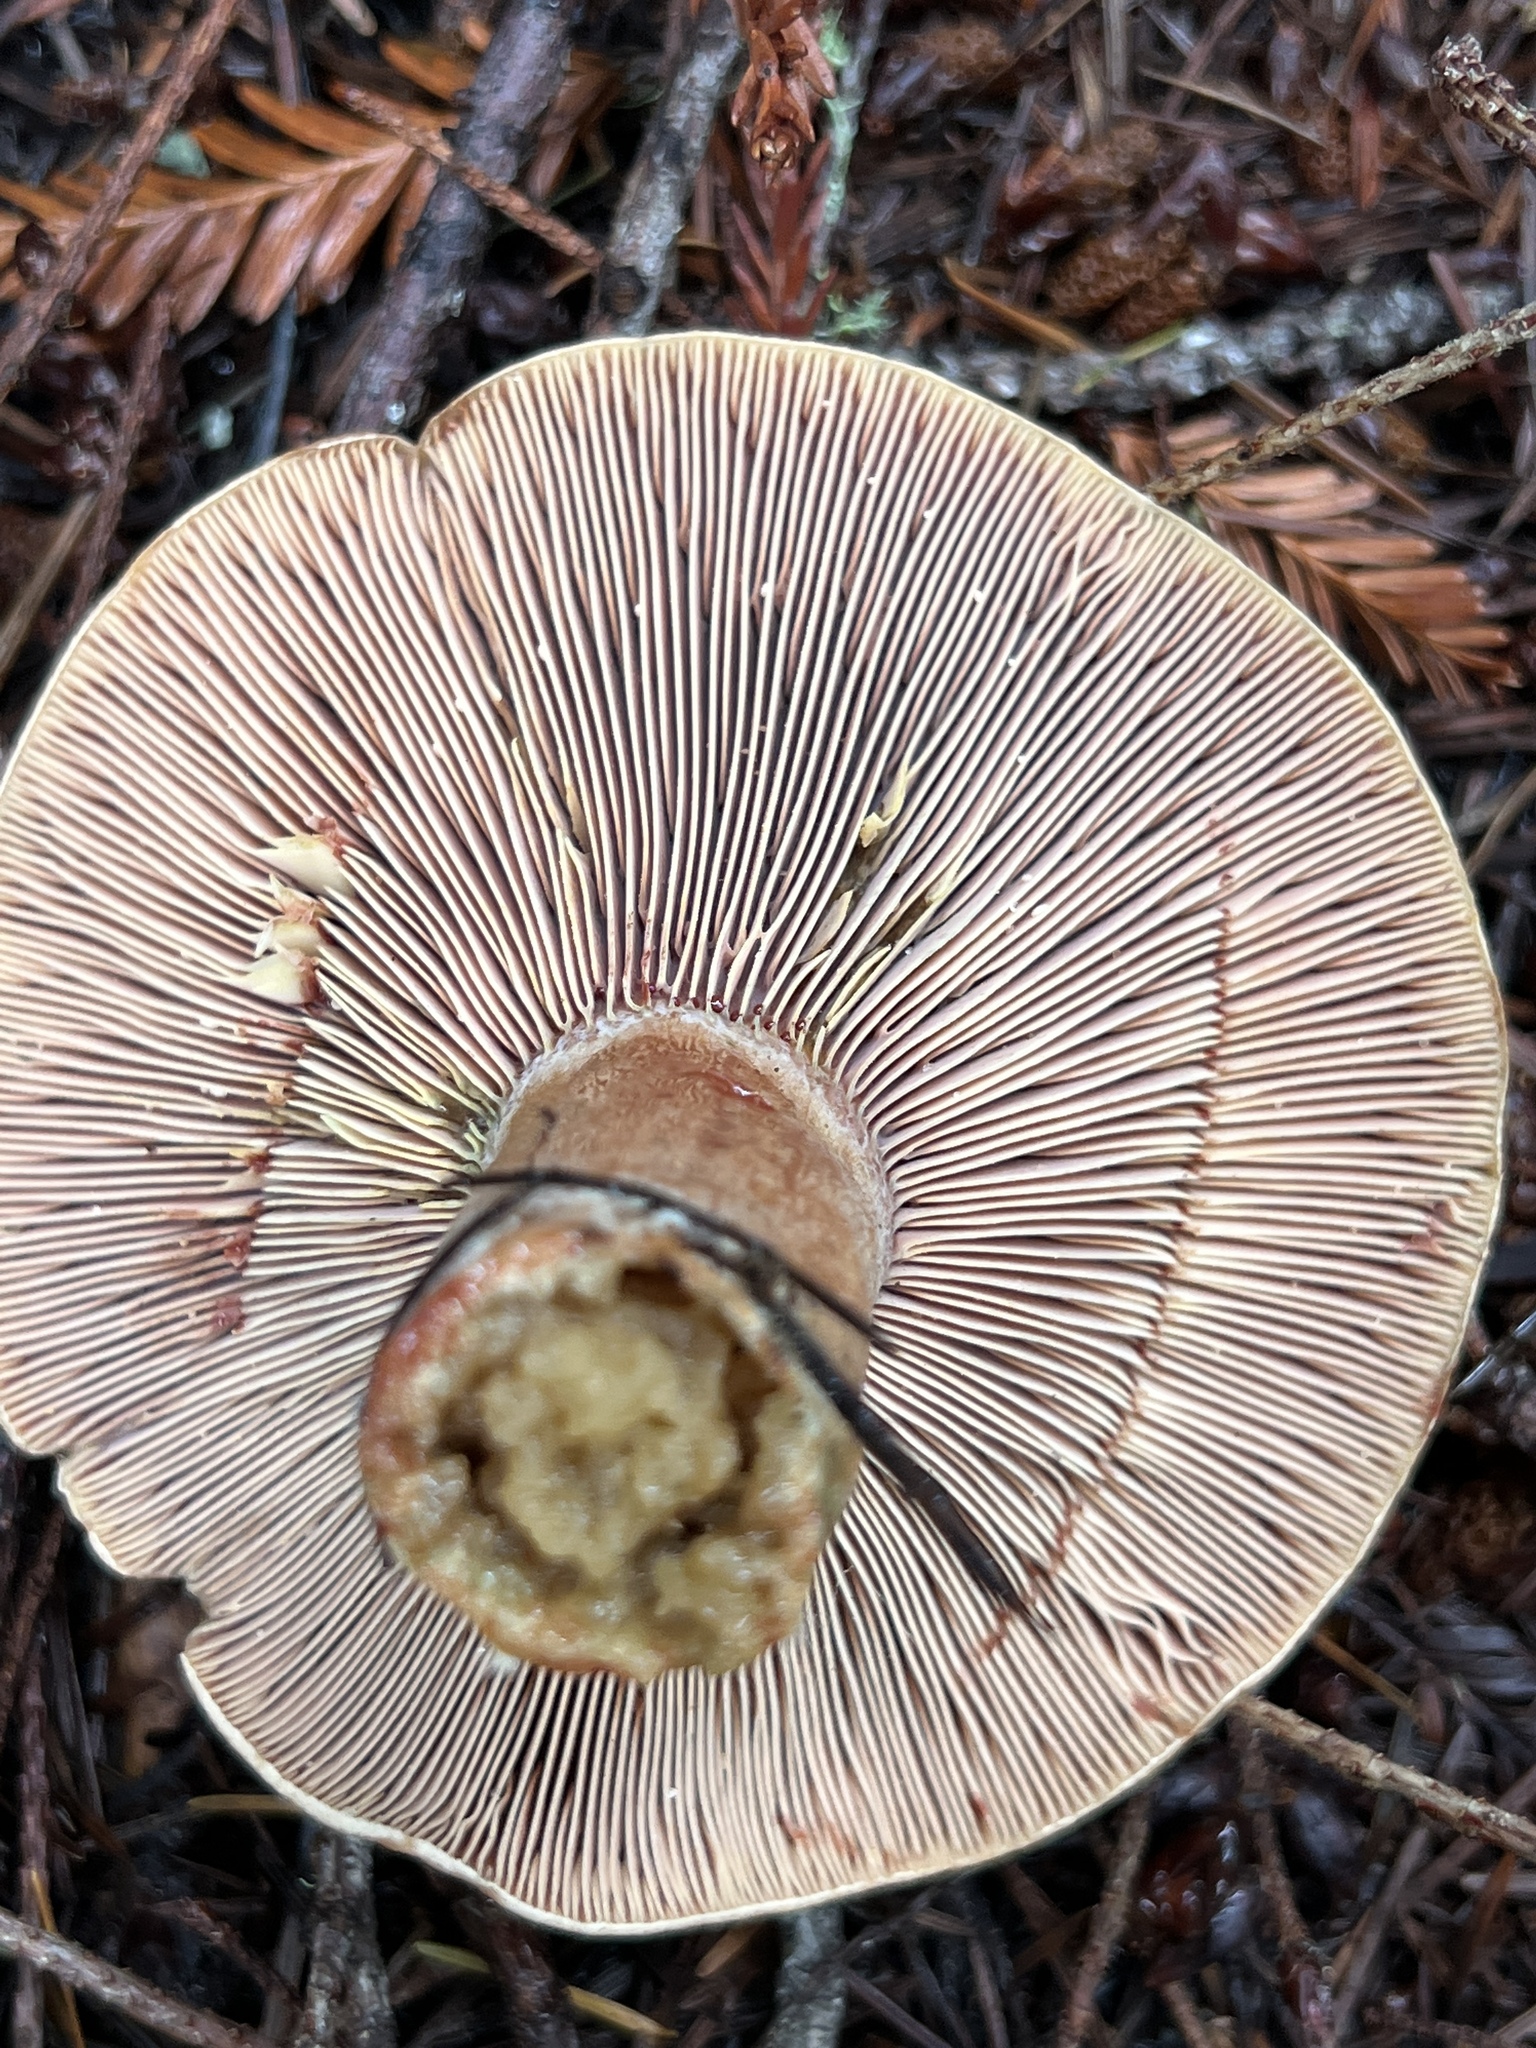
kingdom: Fungi
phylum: Basidiomycota
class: Agaricomycetes
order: Russulales
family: Russulaceae
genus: Lactarius
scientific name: Lactarius rubrilacteus
